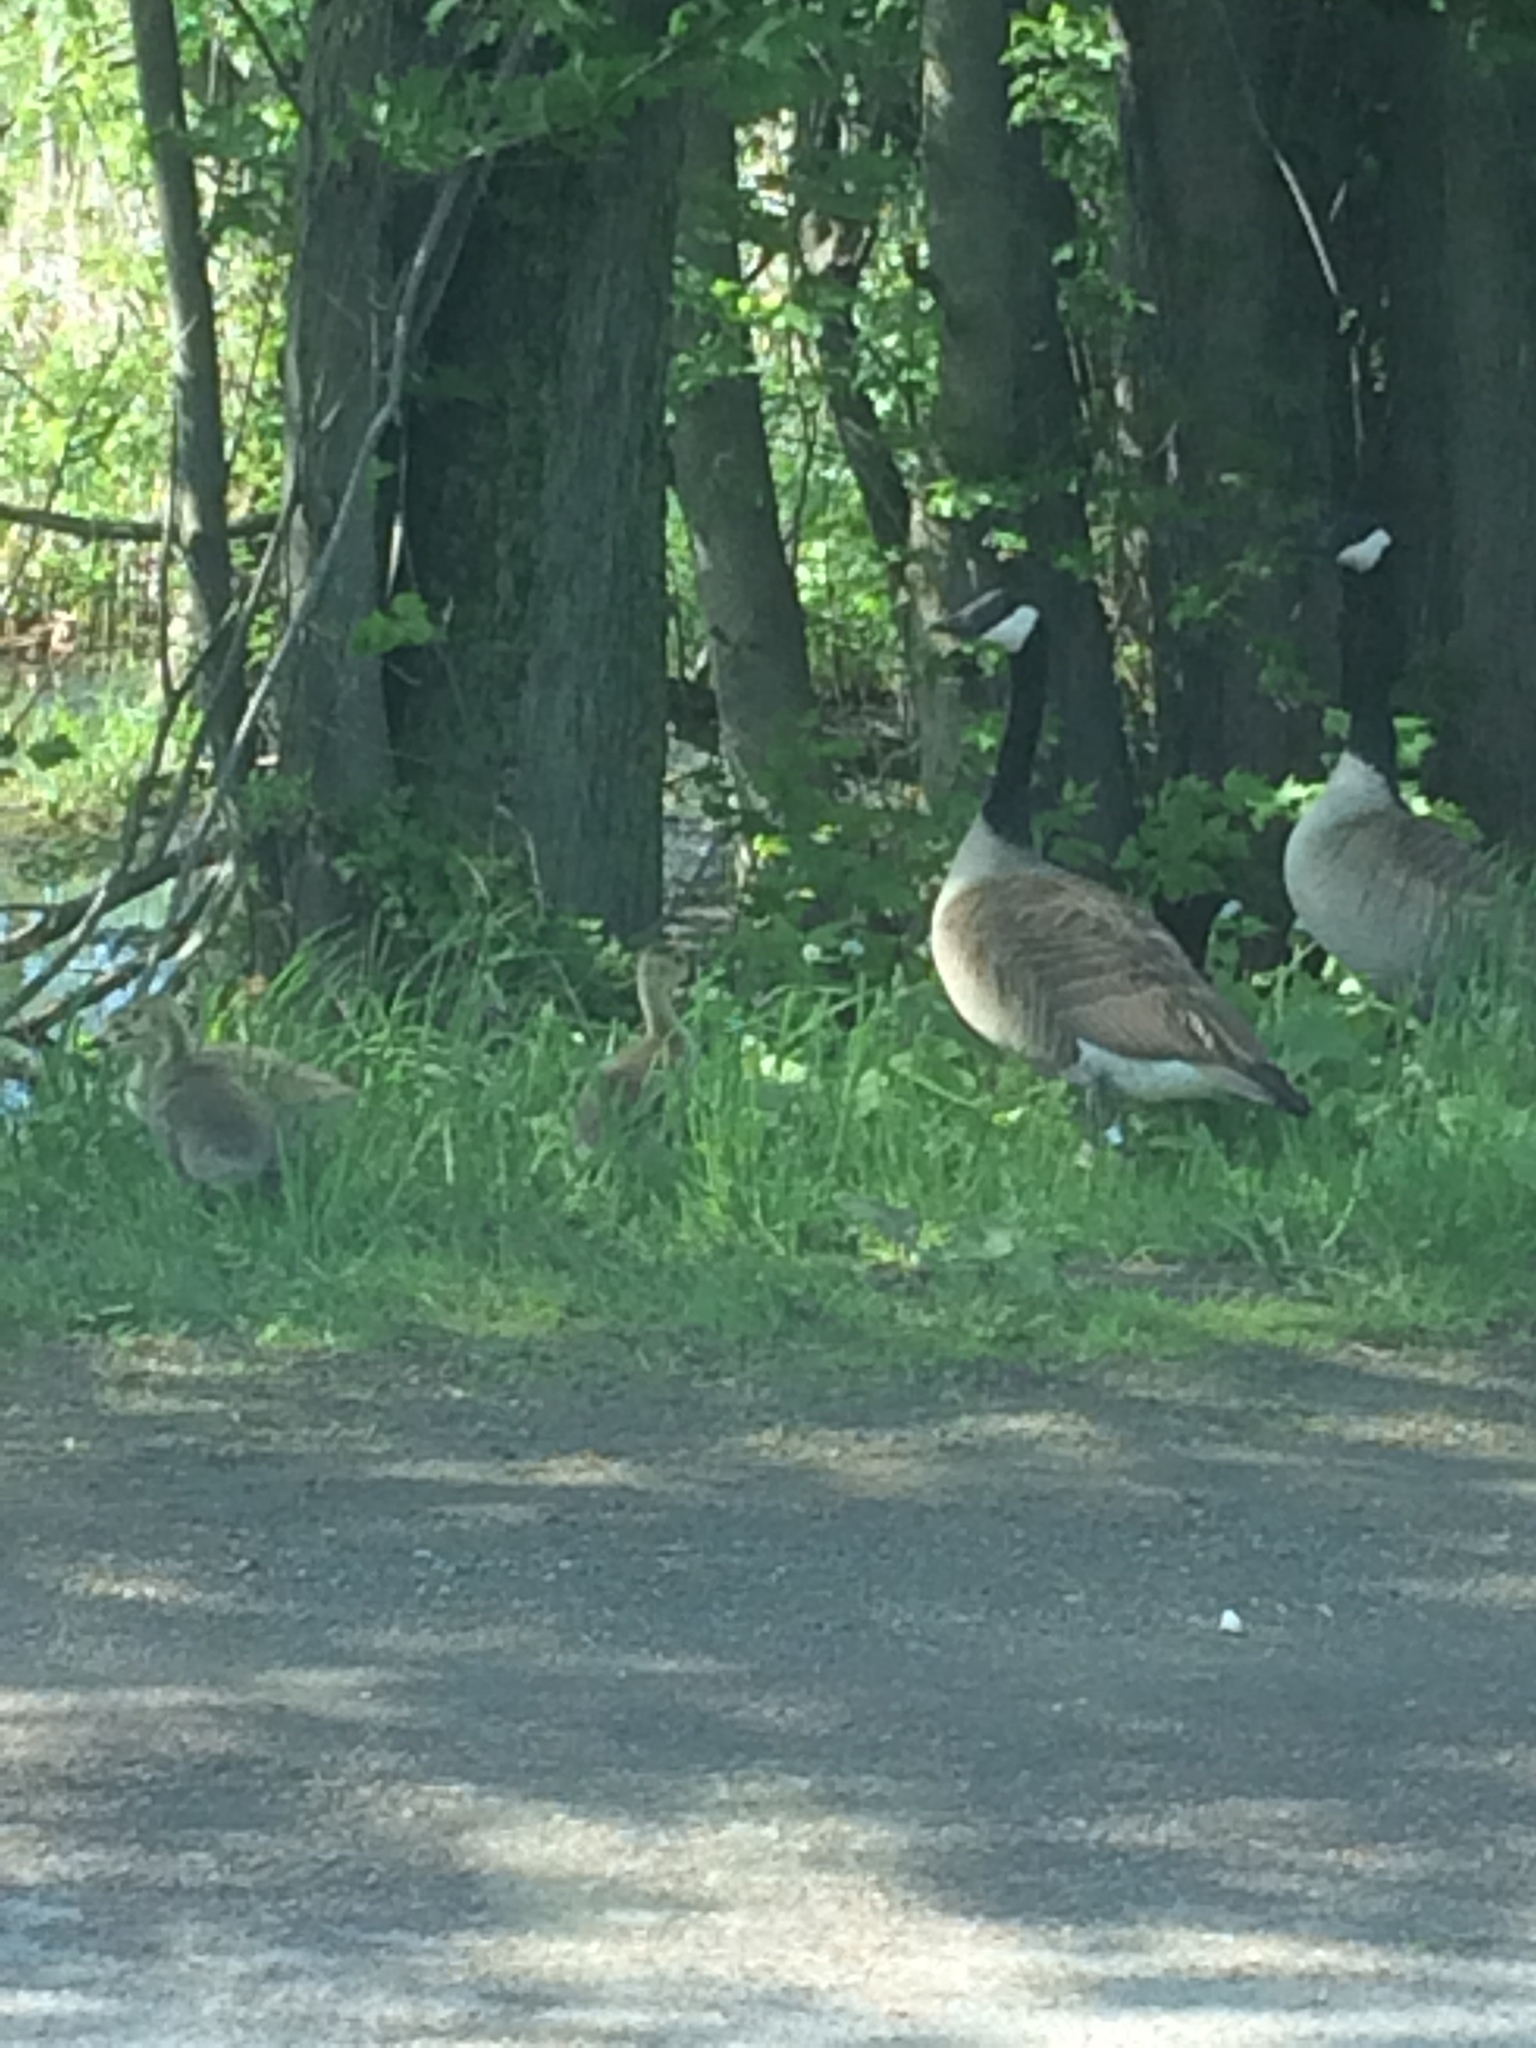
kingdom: Animalia
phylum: Chordata
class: Aves
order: Anseriformes
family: Anatidae
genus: Branta
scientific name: Branta canadensis
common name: Canada goose
